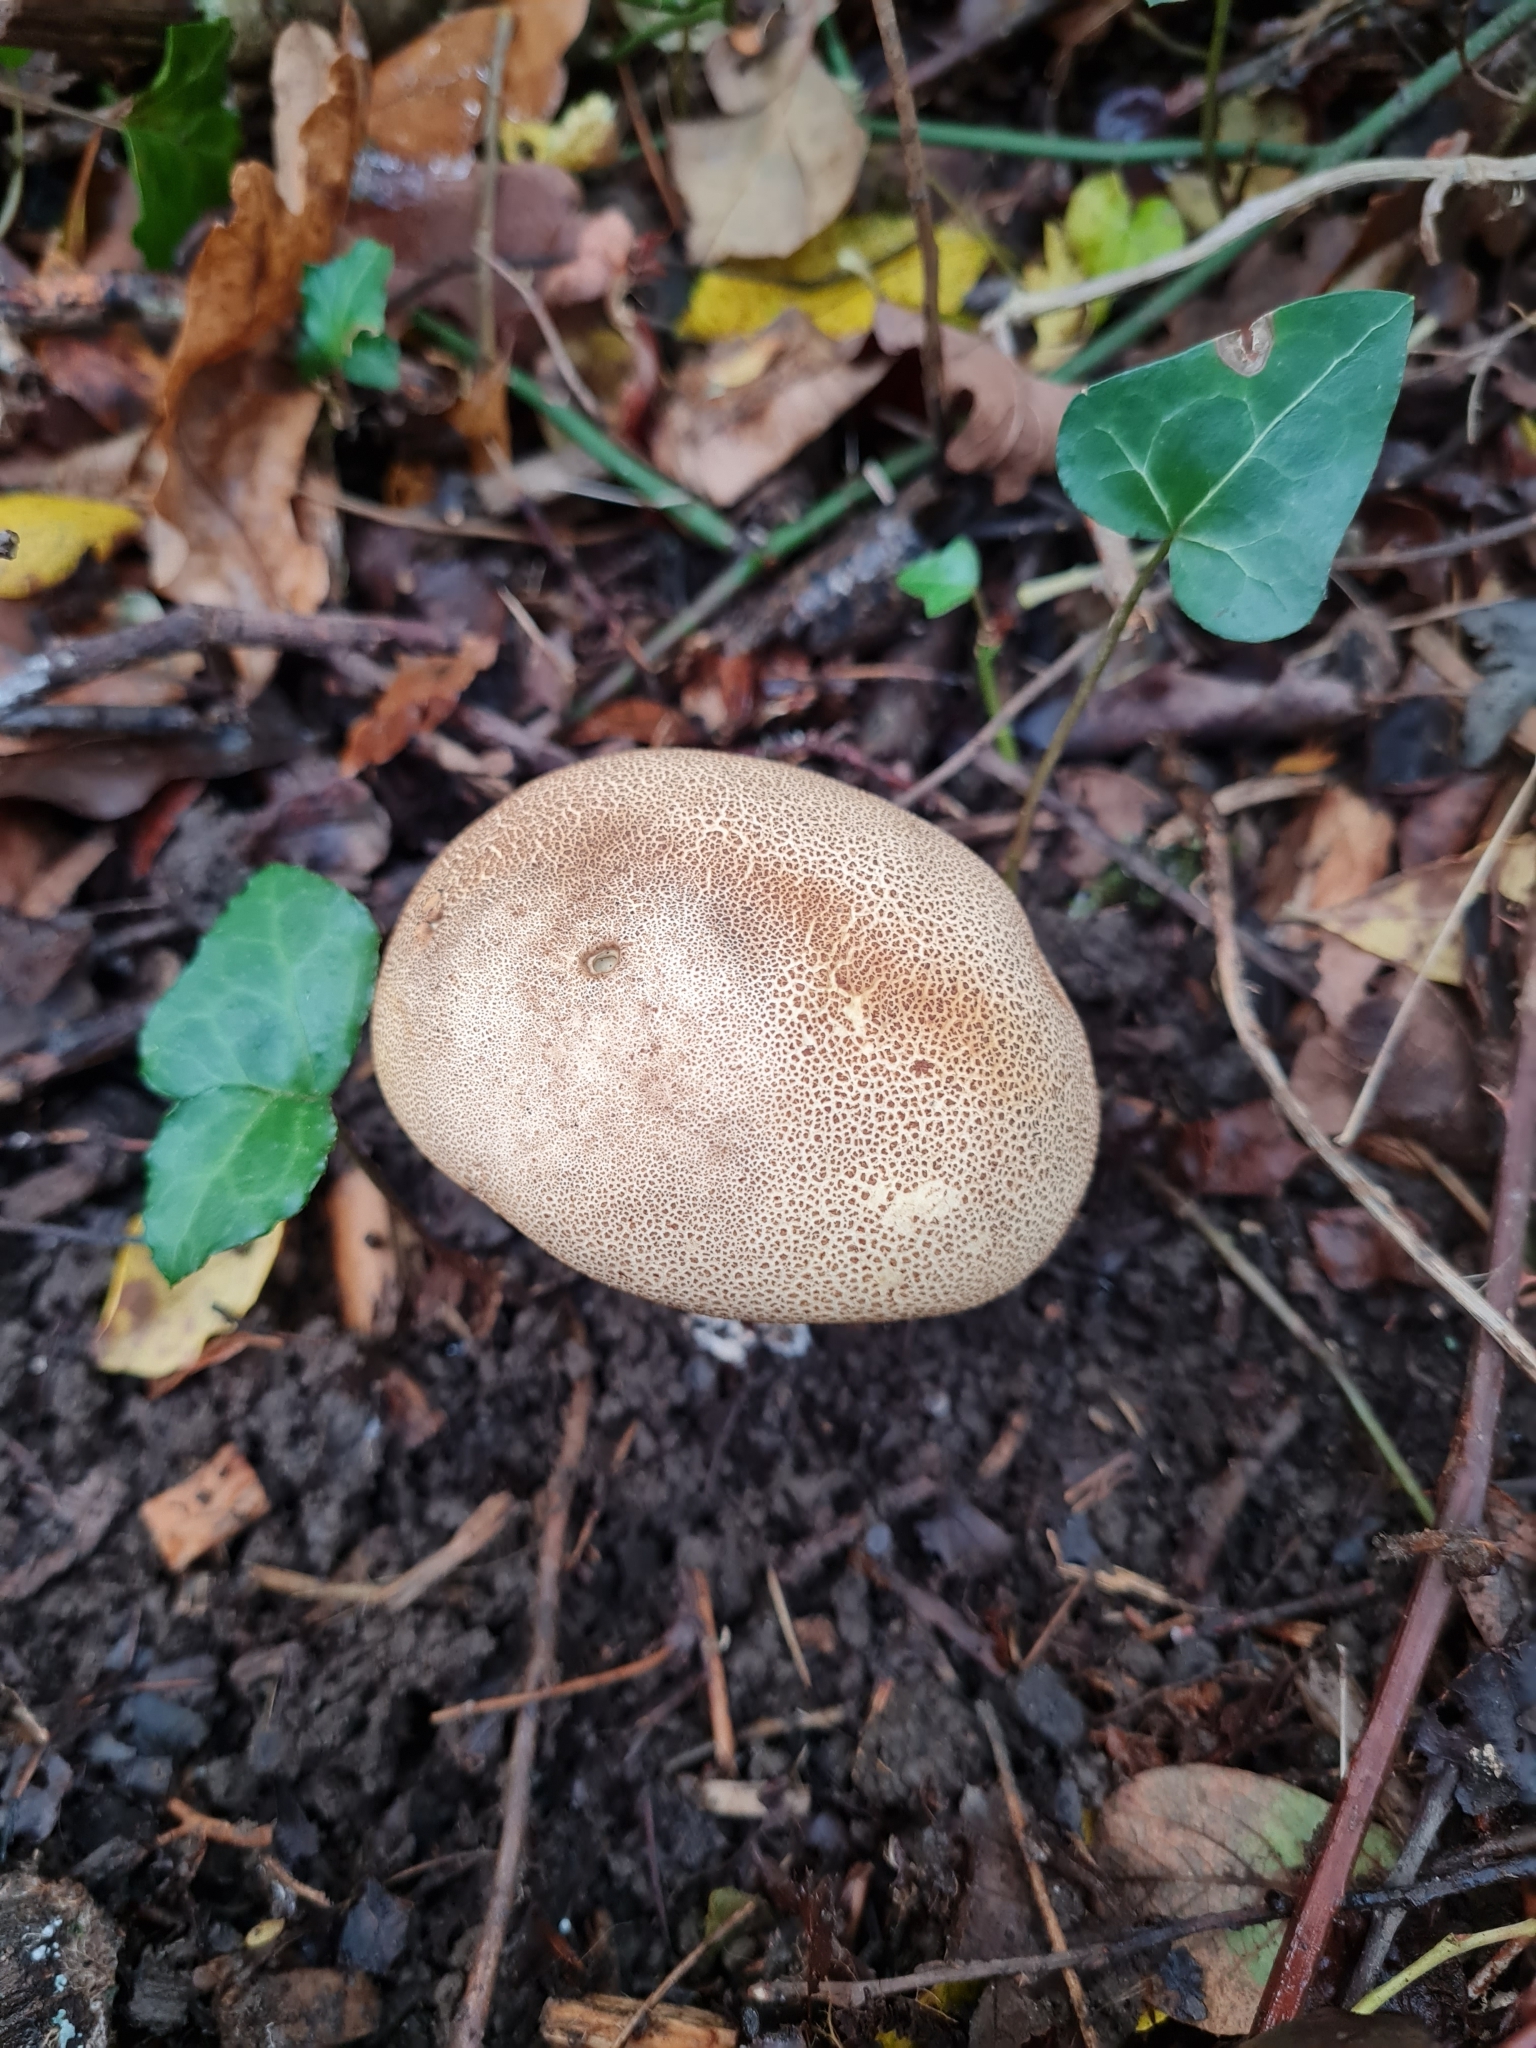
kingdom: Fungi
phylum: Basidiomycota
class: Agaricomycetes
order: Boletales
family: Sclerodermataceae
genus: Scleroderma
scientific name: Scleroderma verrucosum
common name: Scaly earthball
